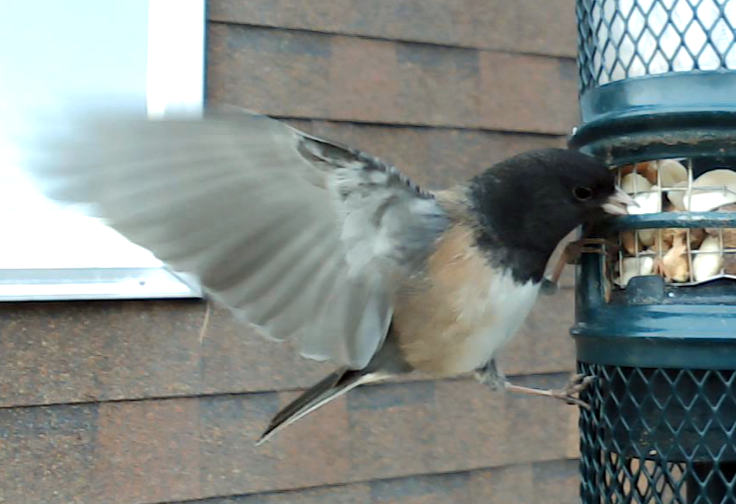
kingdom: Animalia
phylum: Chordata
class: Aves
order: Passeriformes
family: Passerellidae
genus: Junco
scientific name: Junco hyemalis
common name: Dark-eyed junco
